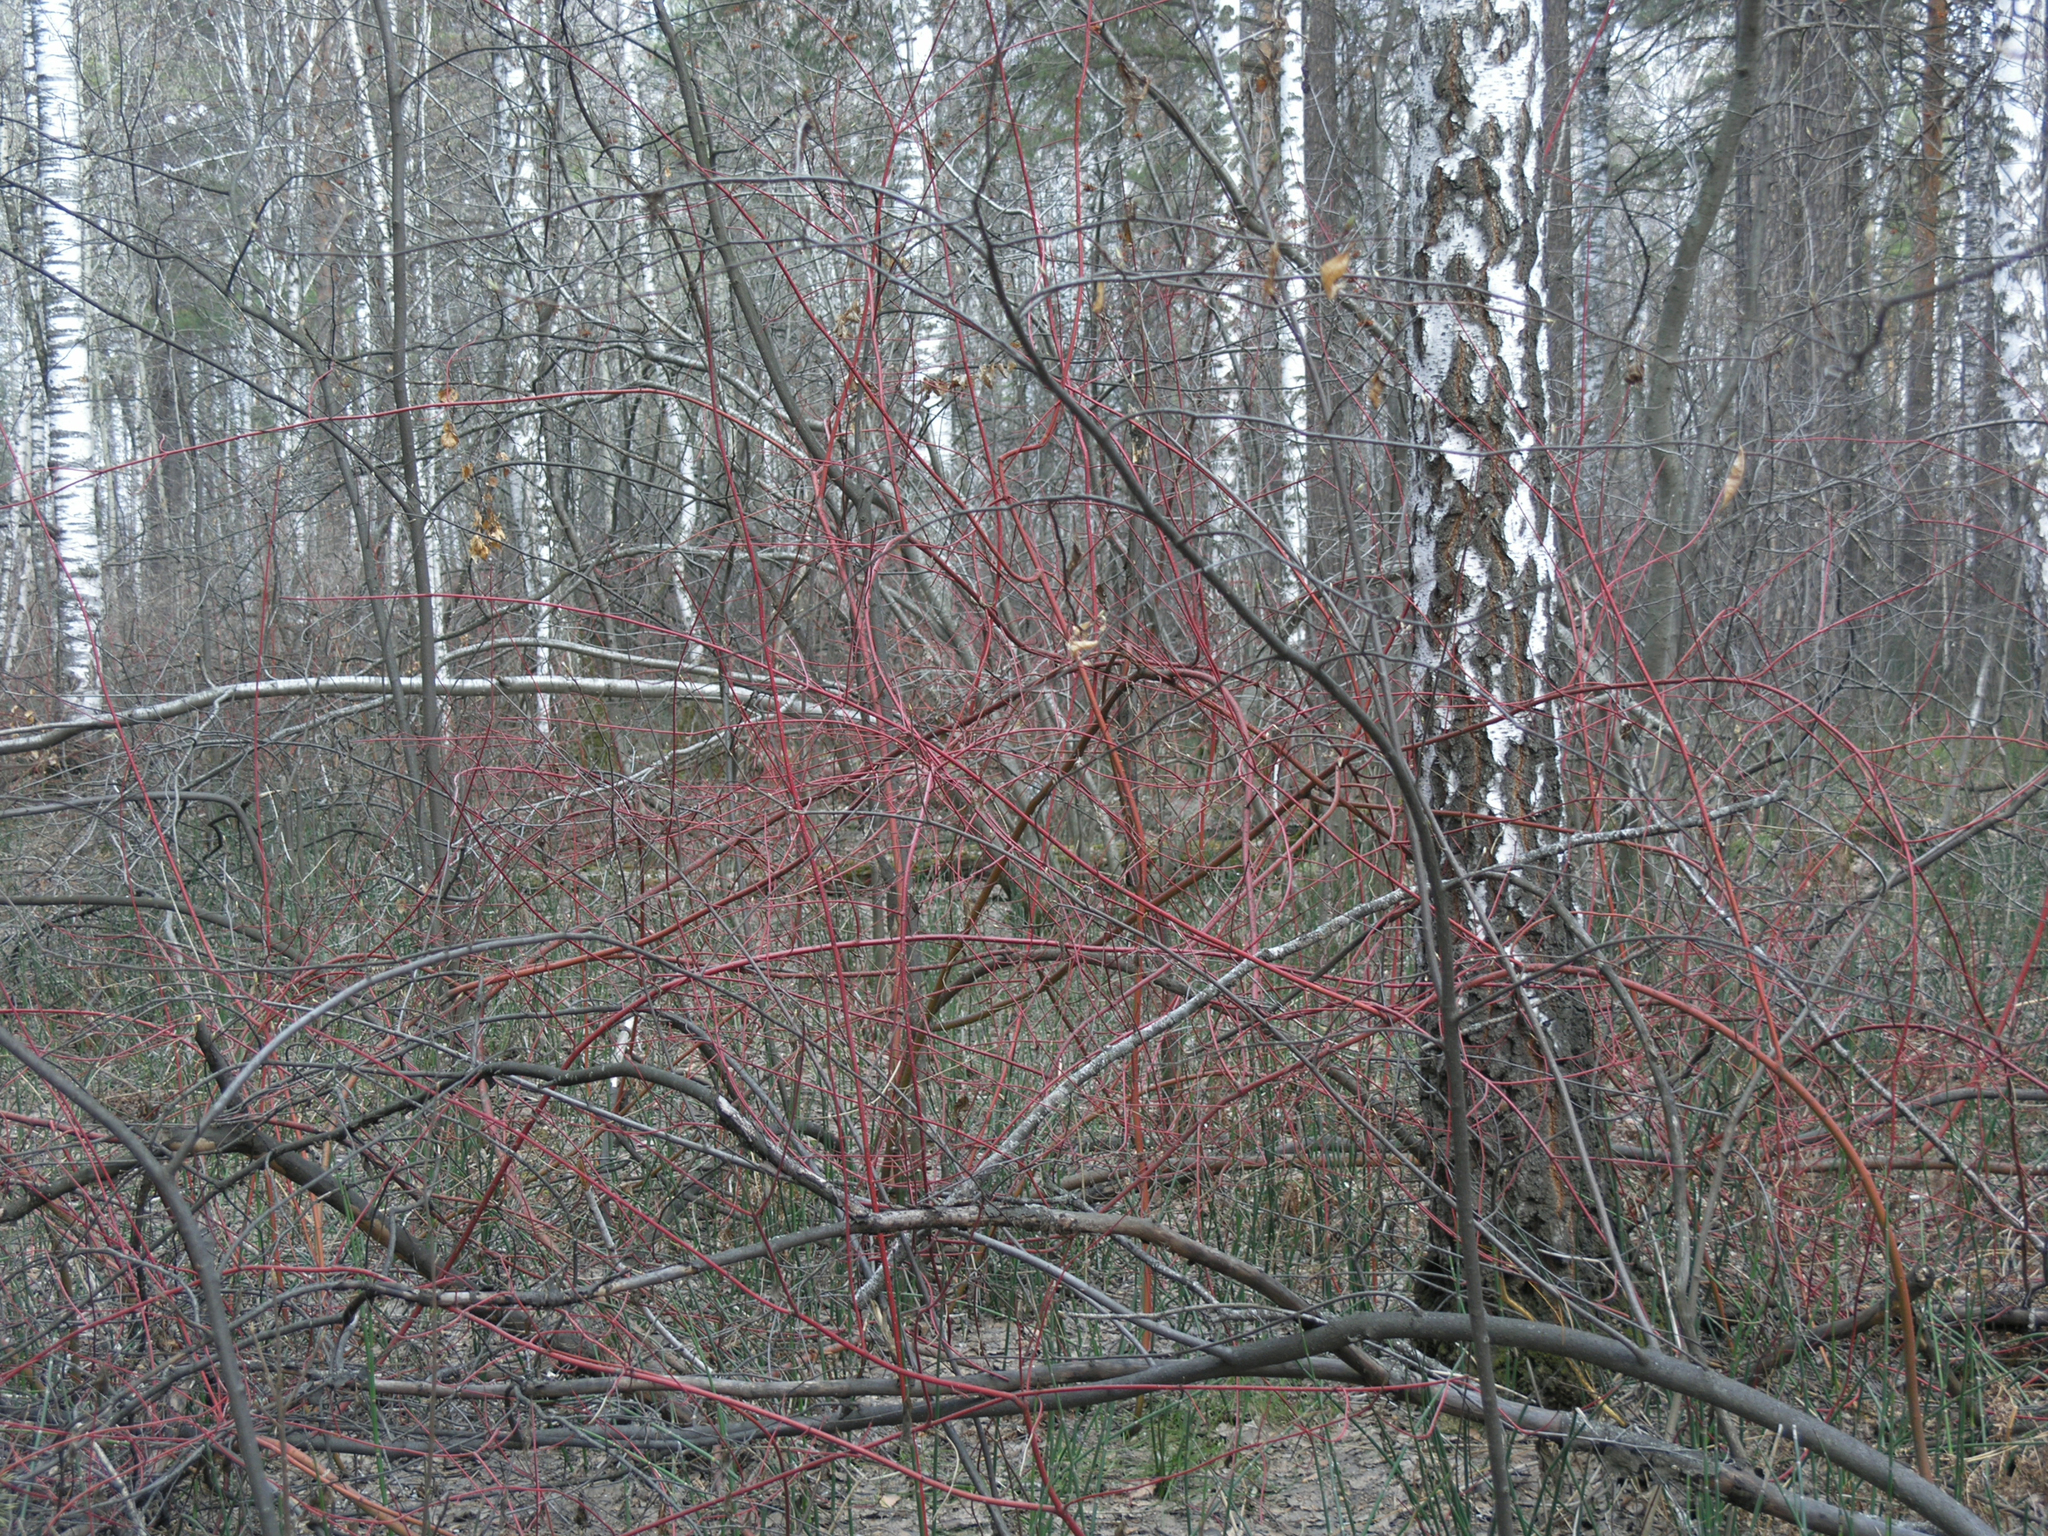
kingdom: Plantae
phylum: Tracheophyta
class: Magnoliopsida
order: Fagales
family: Betulaceae
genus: Betula
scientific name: Betula pendula
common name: Silver birch
